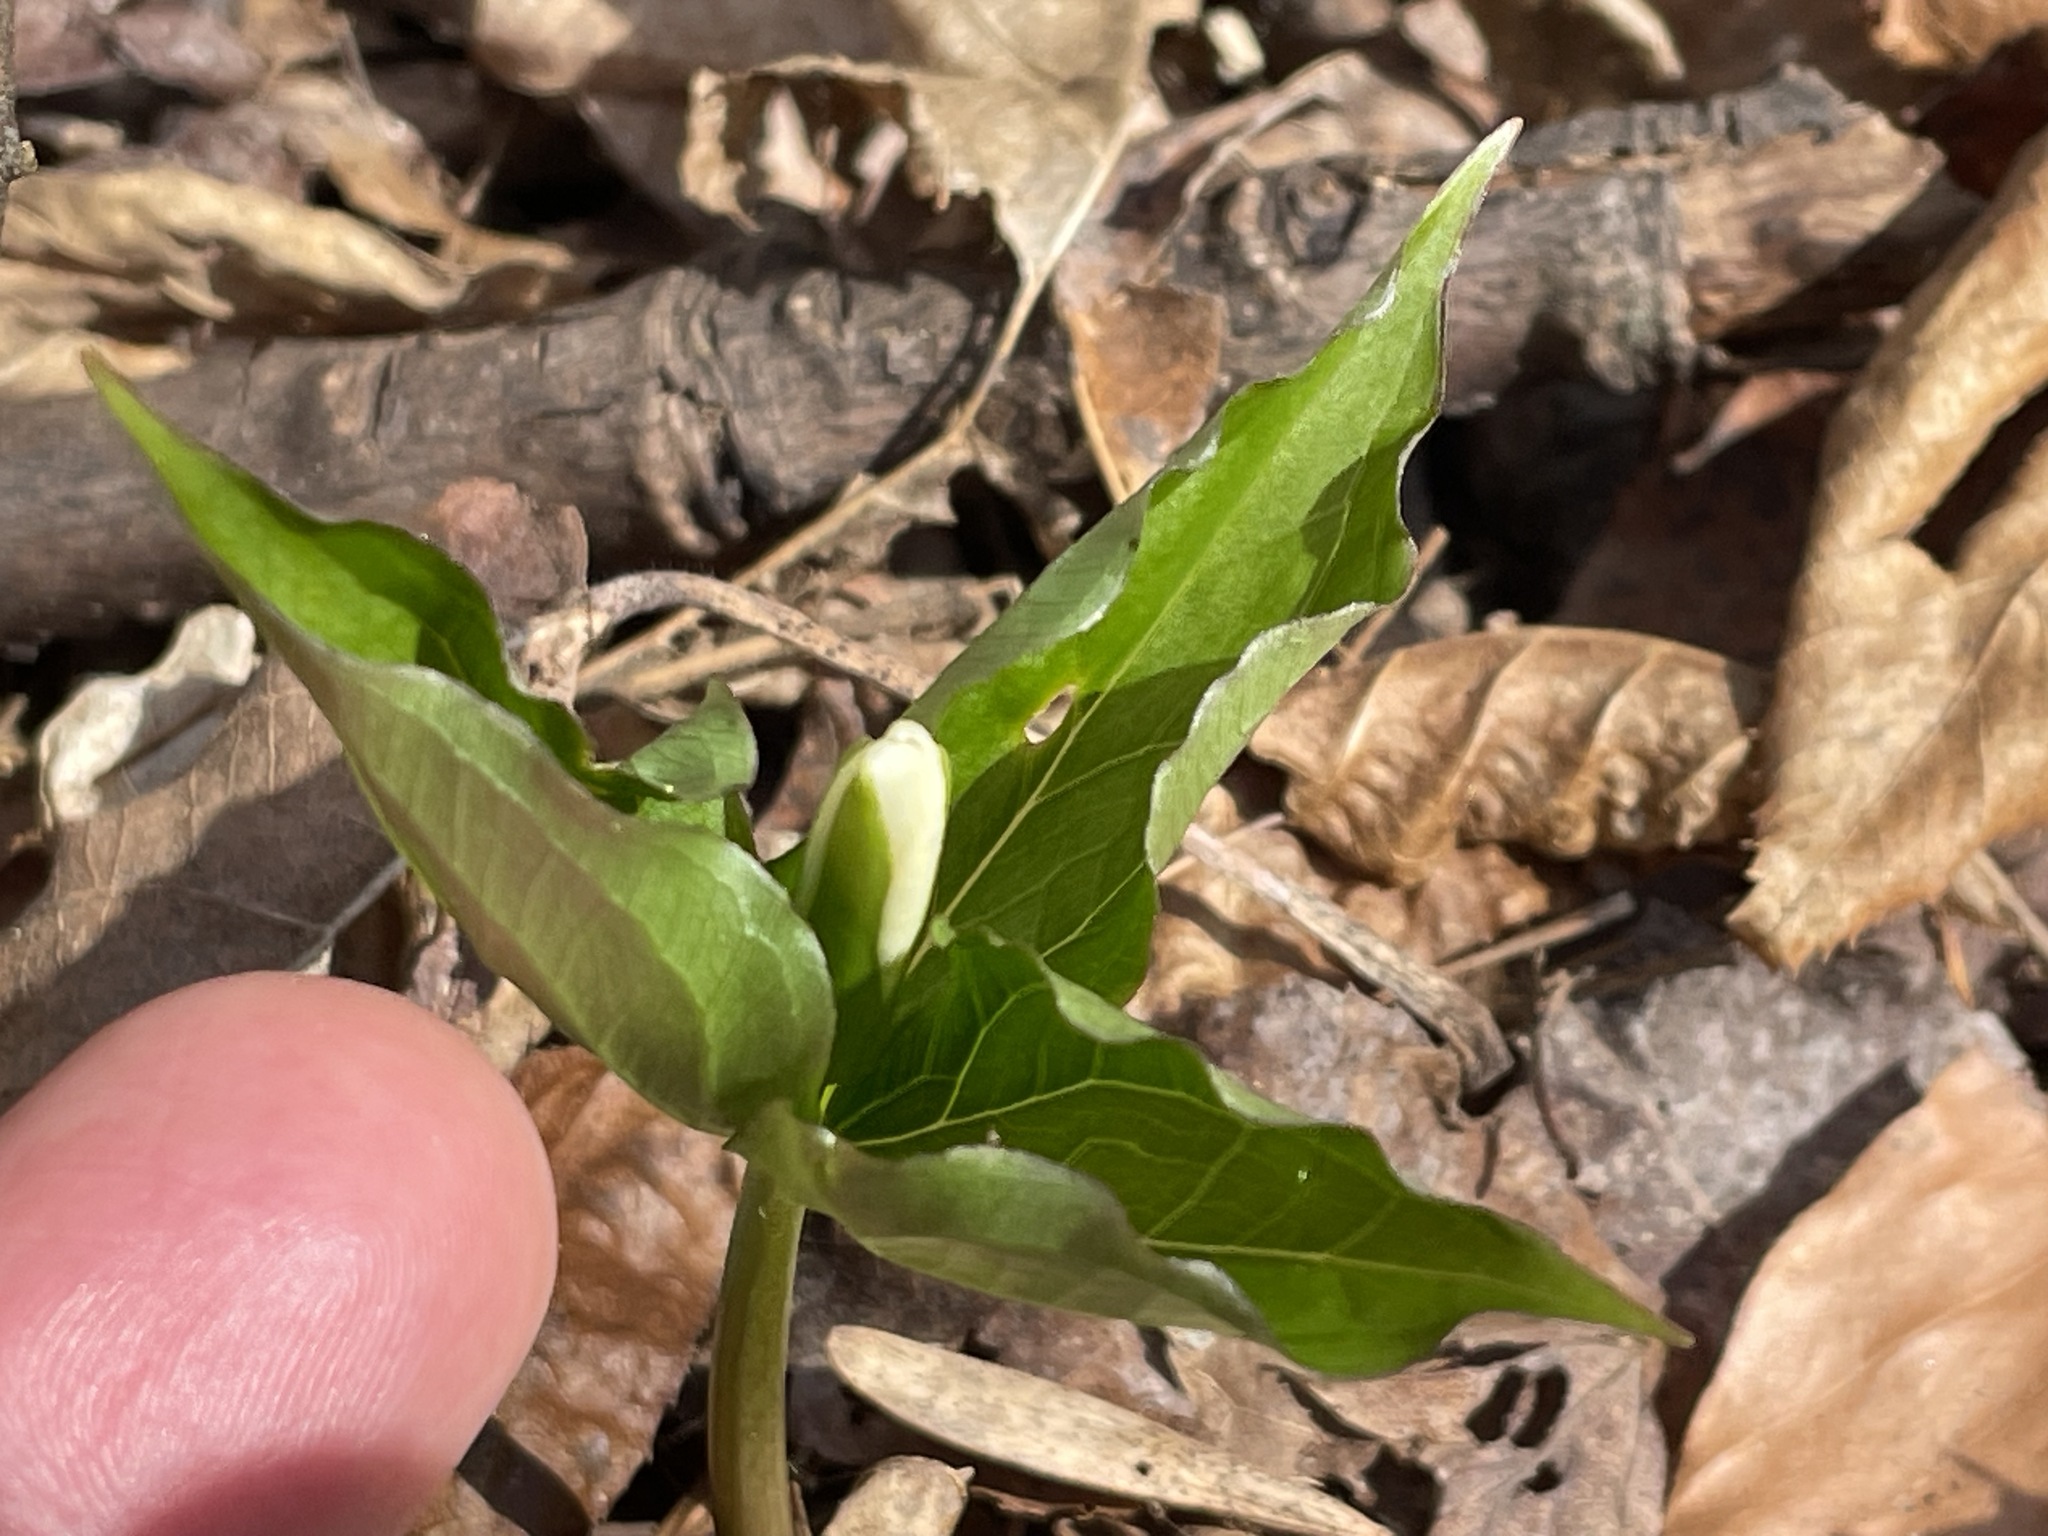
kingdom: Plantae
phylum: Tracheophyta
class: Liliopsida
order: Liliales
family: Melanthiaceae
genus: Trillium
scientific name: Trillium grandiflorum
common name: Great white trillium
